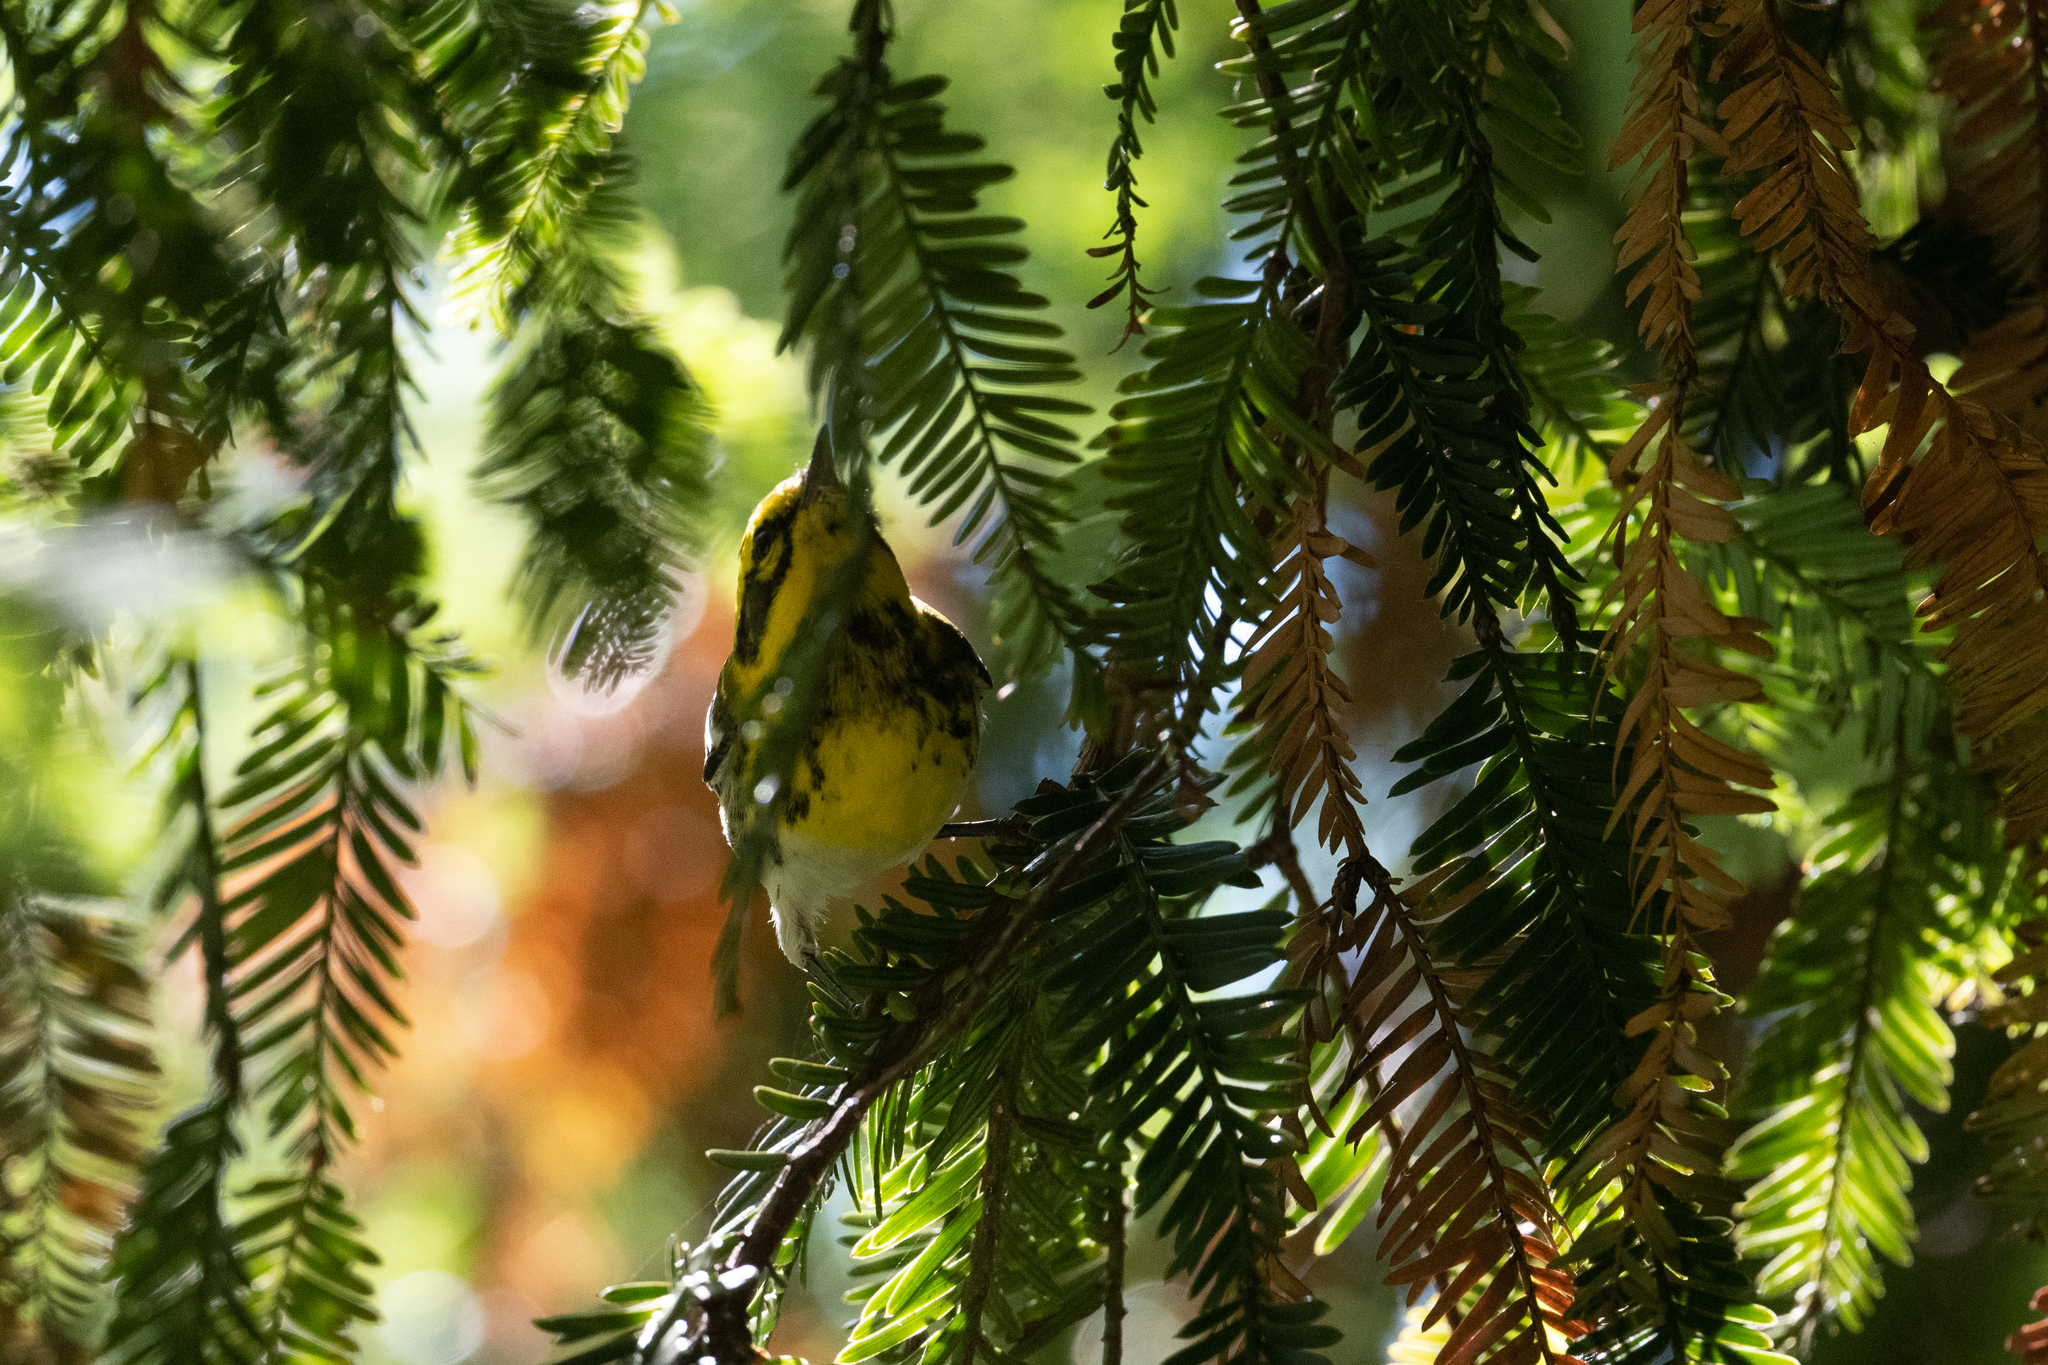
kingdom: Animalia
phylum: Chordata
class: Aves
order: Passeriformes
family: Parulidae
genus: Setophaga
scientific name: Setophaga townsendi
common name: Townsend's warbler
